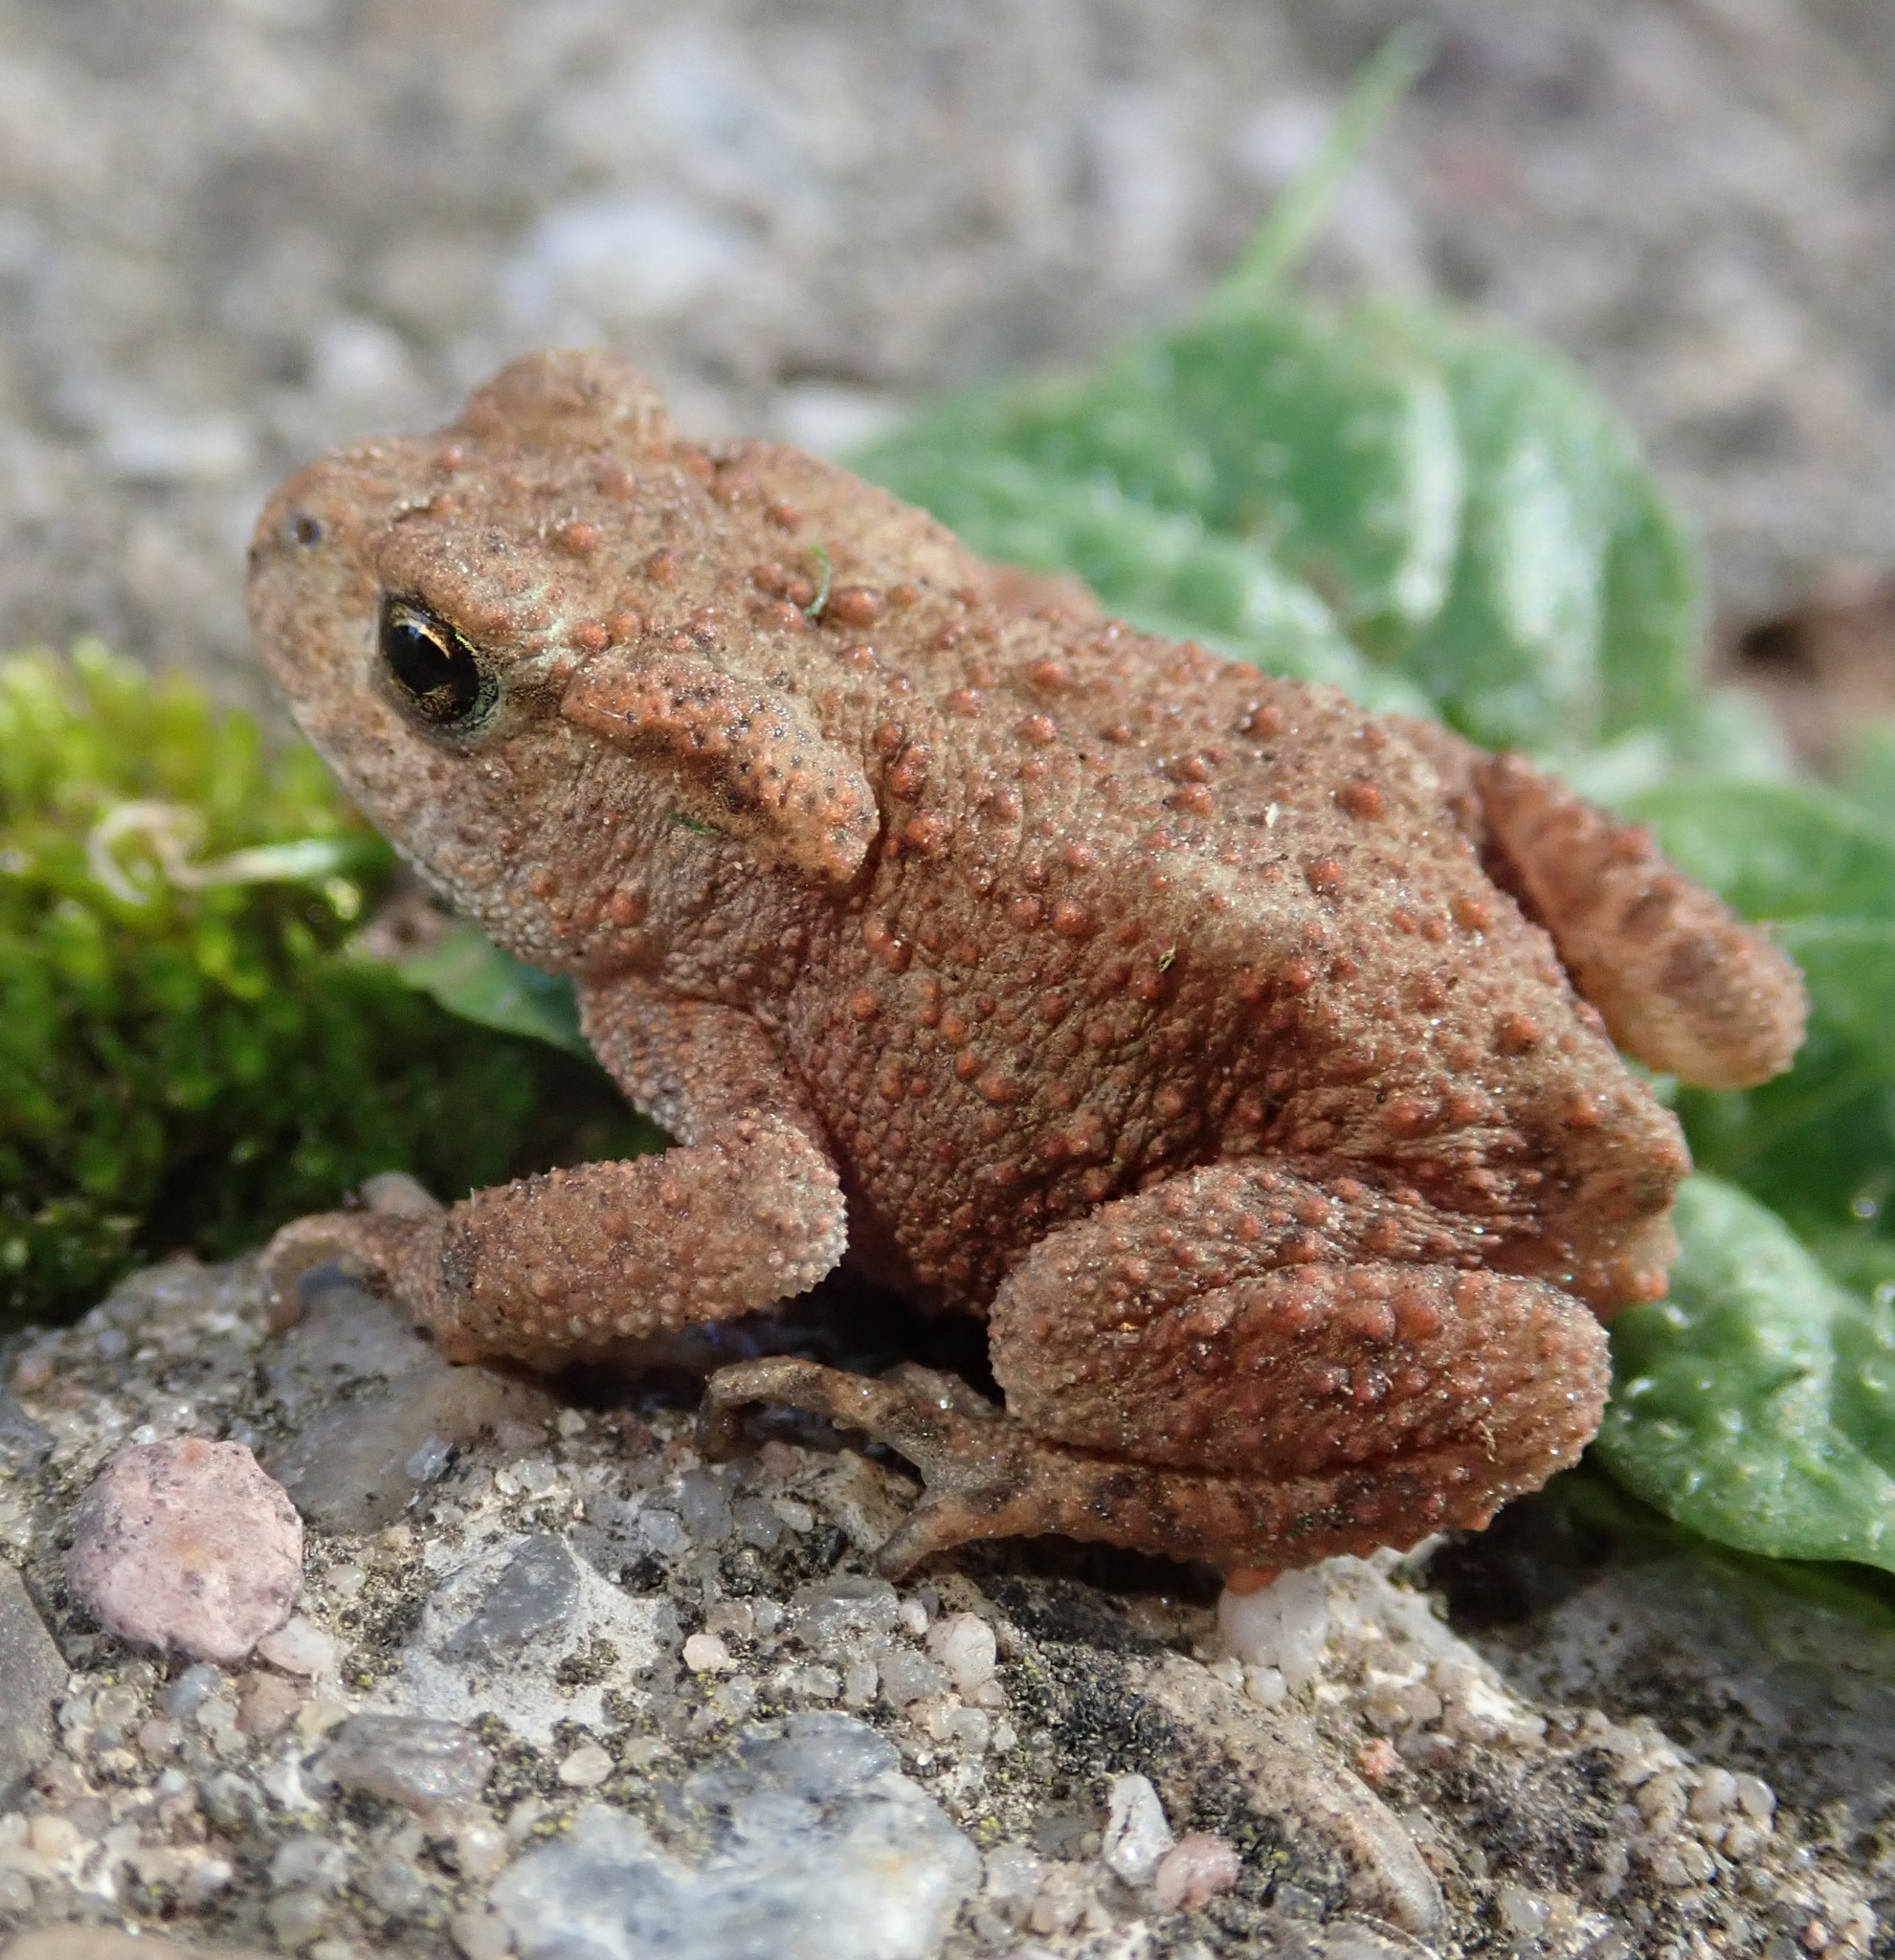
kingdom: Animalia
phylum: Chordata
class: Amphibia
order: Anura
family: Bufonidae
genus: Bufo
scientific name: Bufo bufo
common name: Common toad
